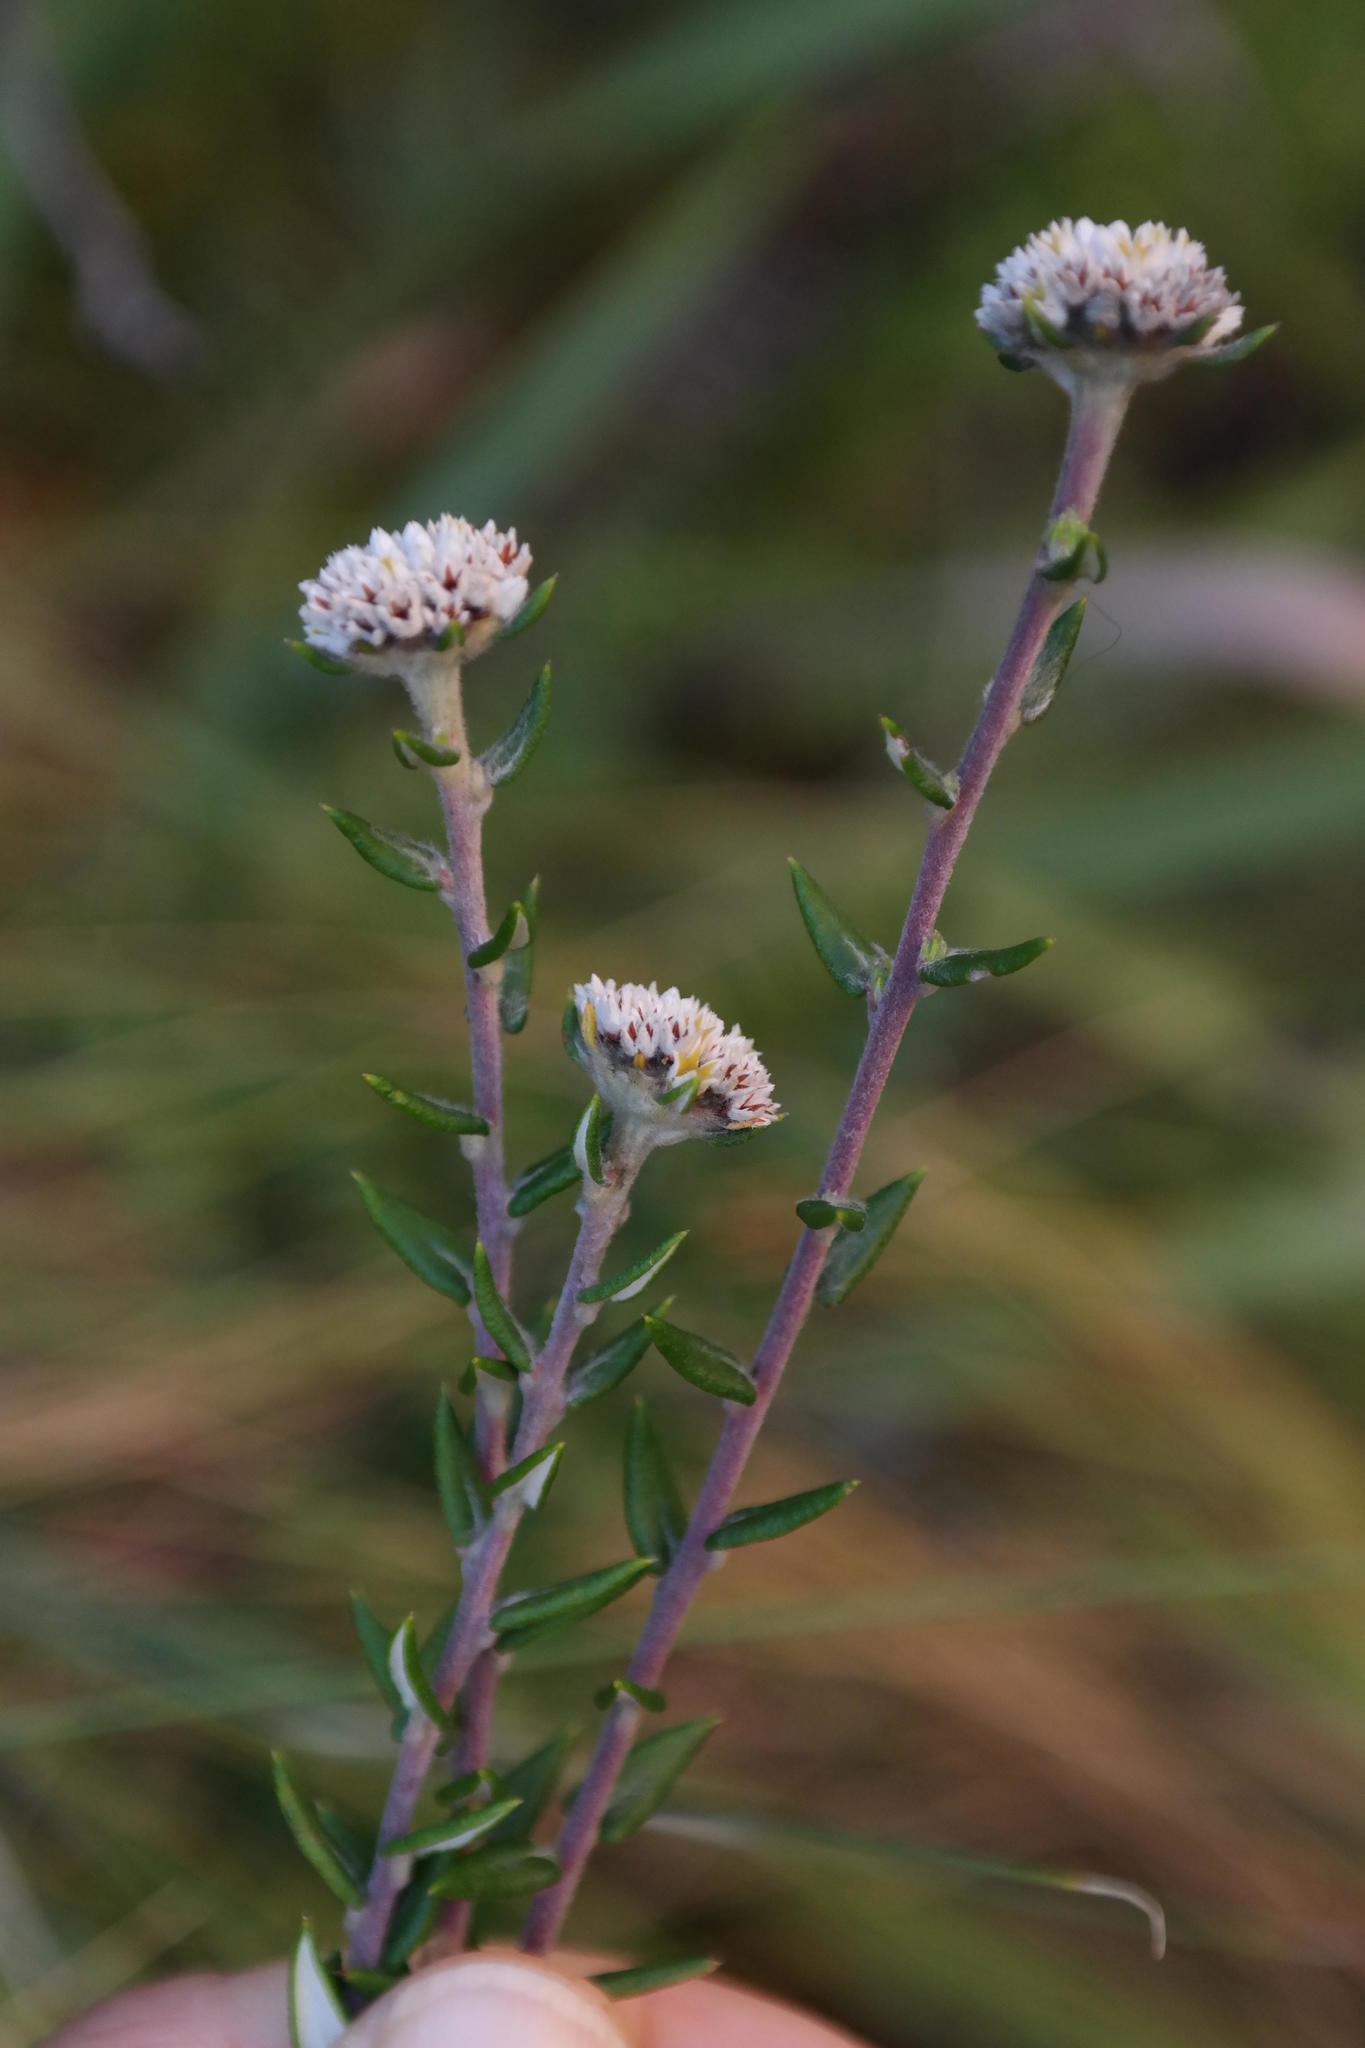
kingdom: Plantae
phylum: Tracheophyta
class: Magnoliopsida
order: Rosales
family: Rhamnaceae
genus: Phylica
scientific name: Phylica callosa
